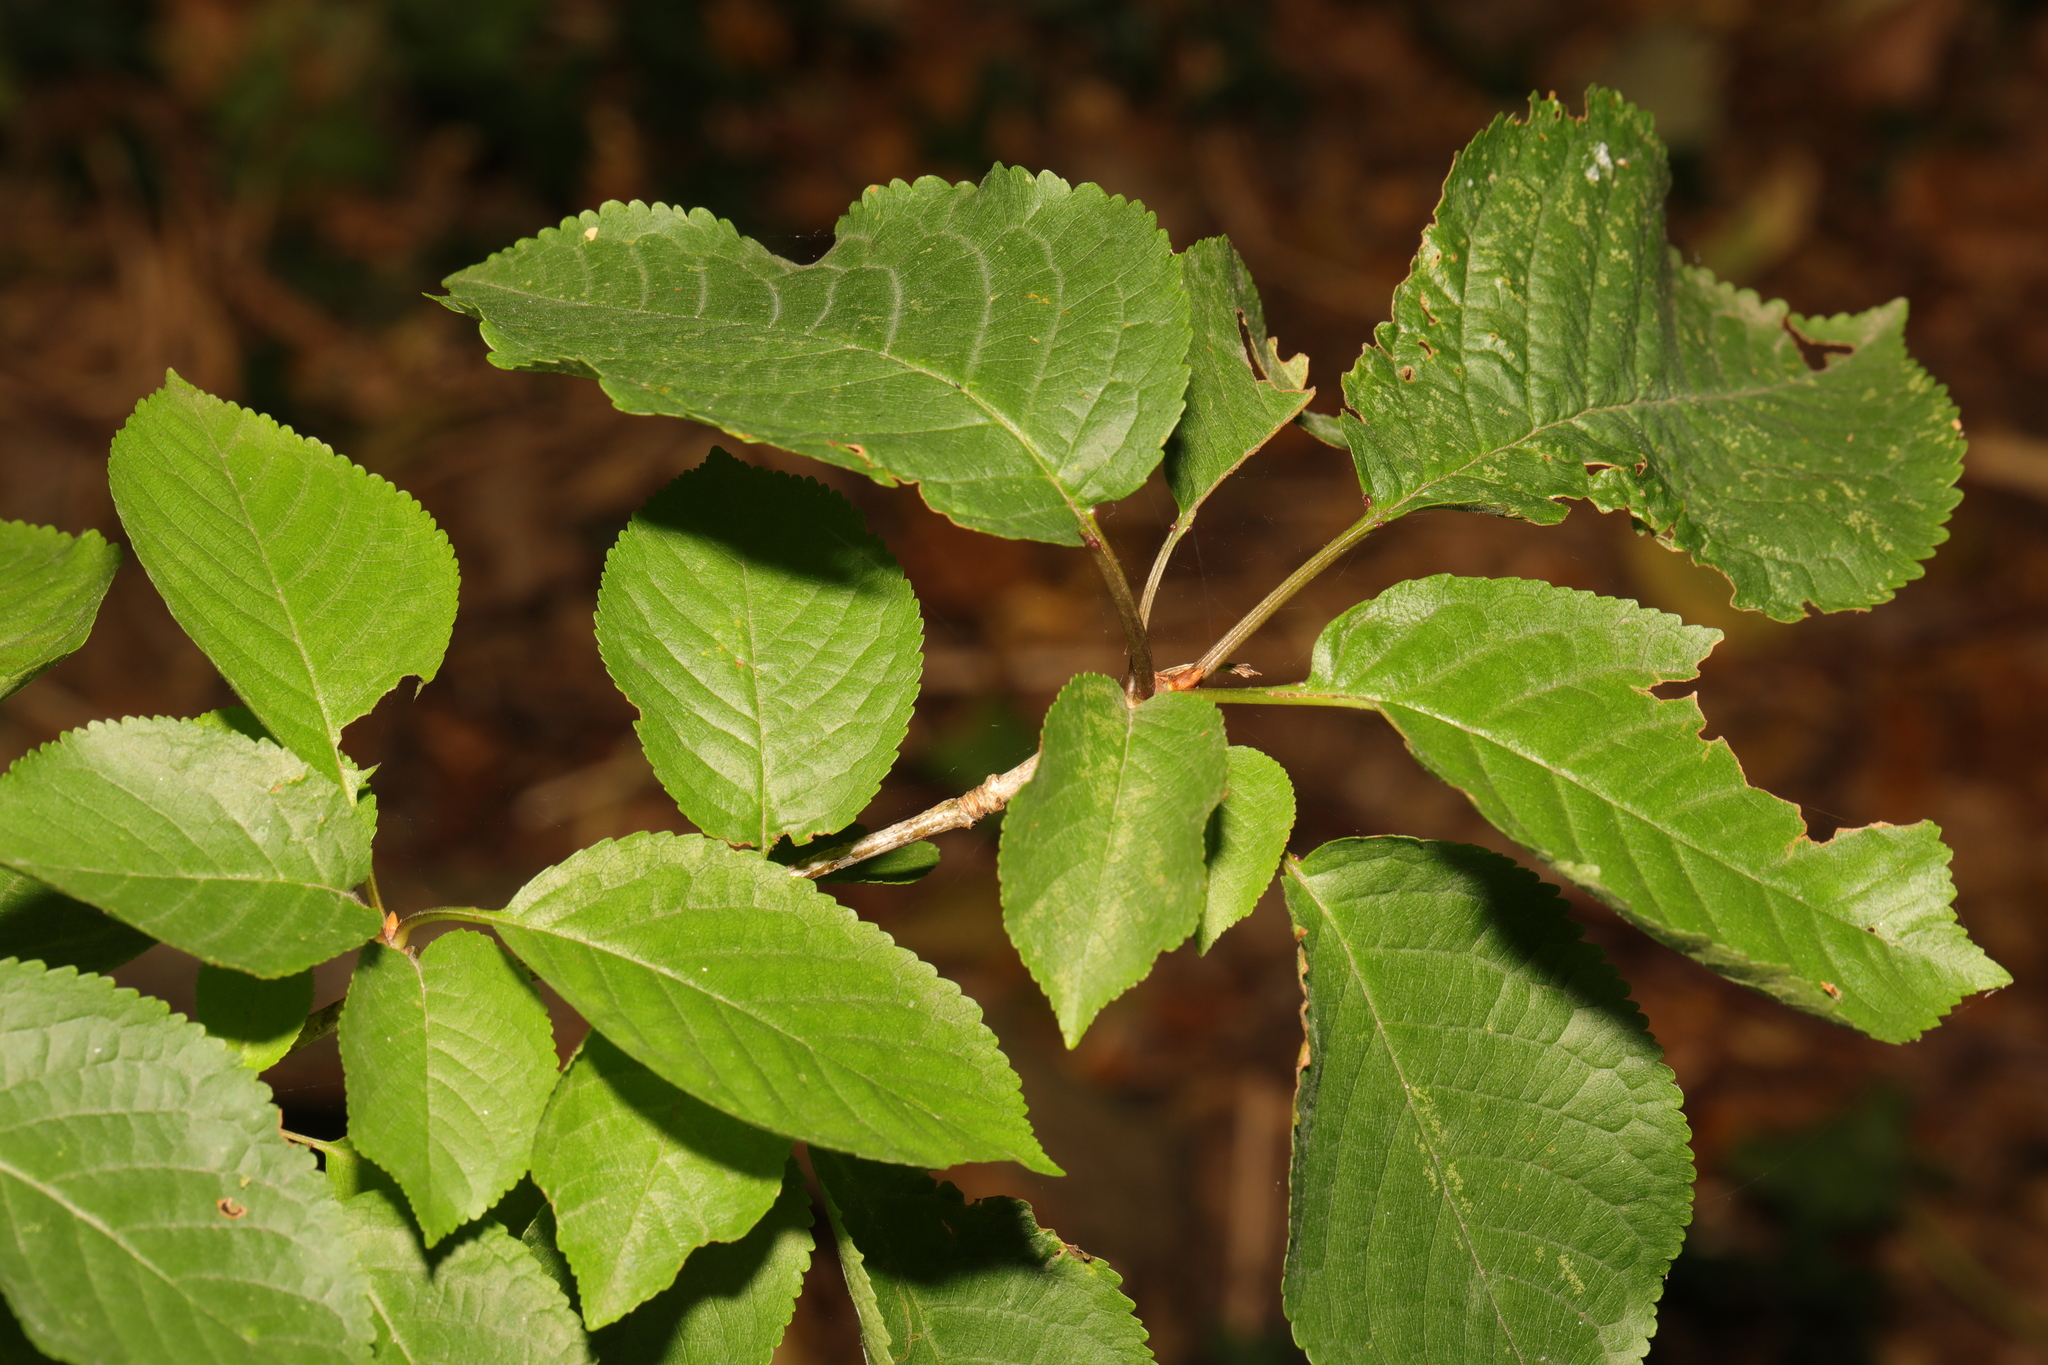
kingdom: Plantae
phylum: Tracheophyta
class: Magnoliopsida
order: Rosales
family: Rosaceae
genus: Prunus
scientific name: Prunus avium
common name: Sweet cherry
